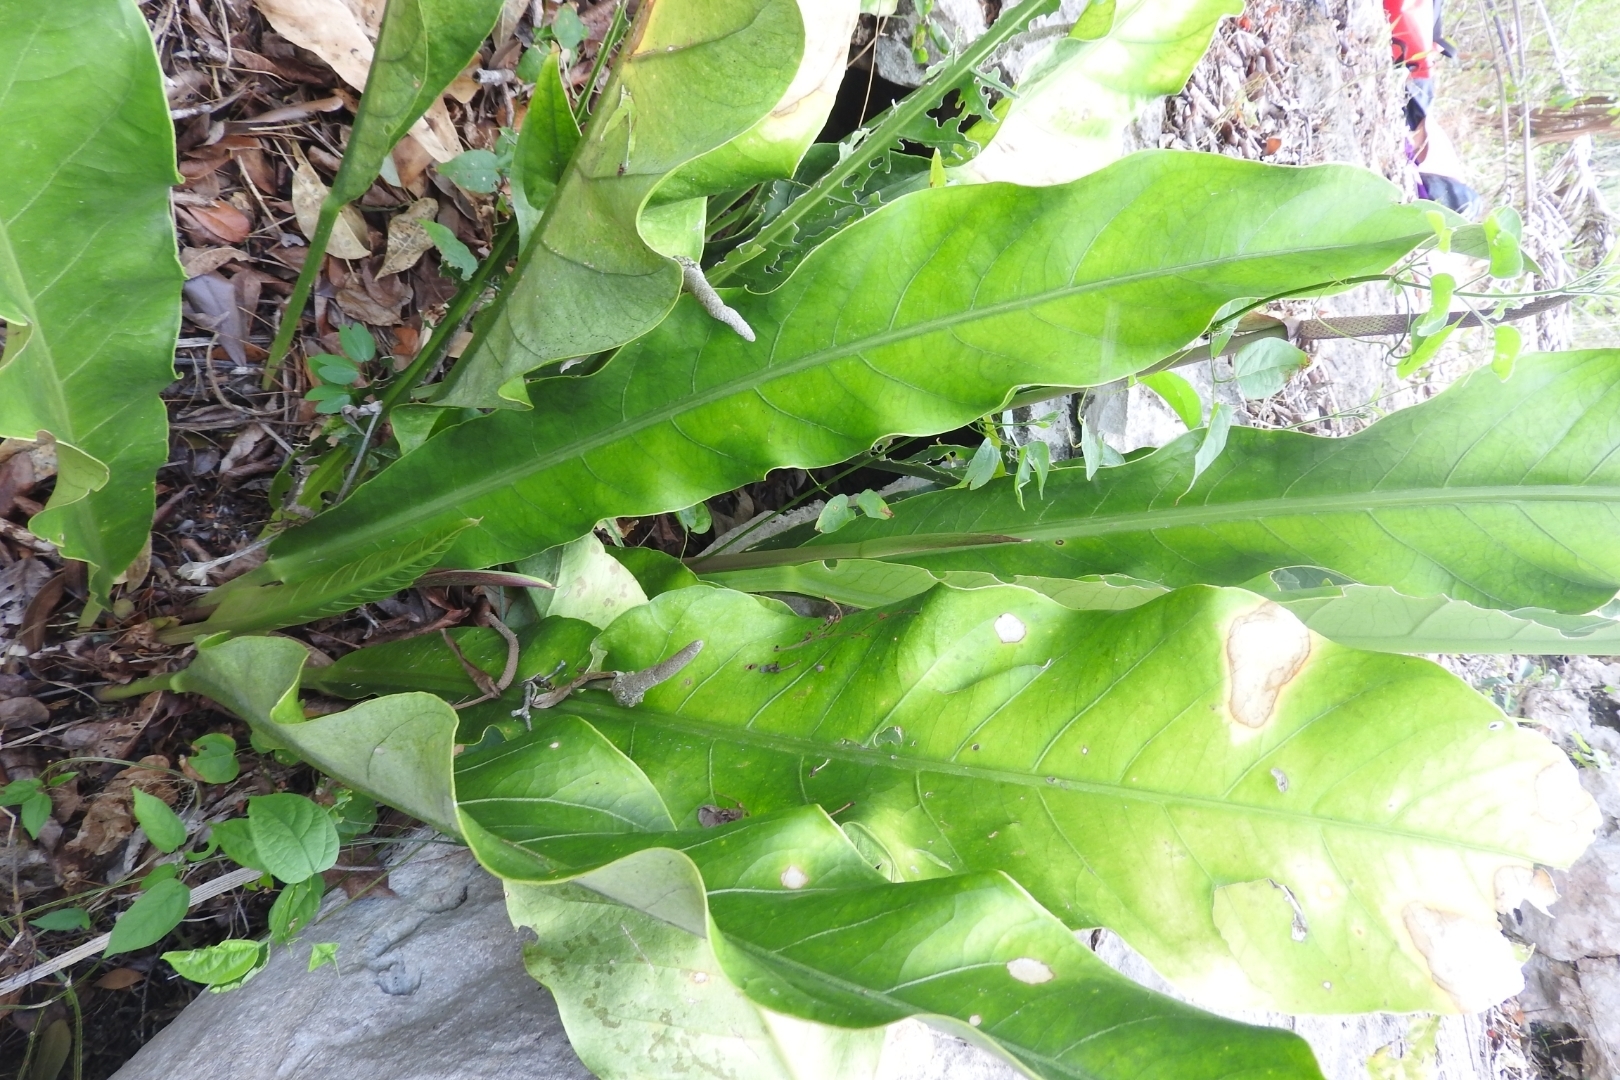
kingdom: Plantae
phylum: Tracheophyta
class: Liliopsida
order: Alismatales
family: Araceae
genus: Anthurium
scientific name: Anthurium schlechtendalii
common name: Laceleaf
